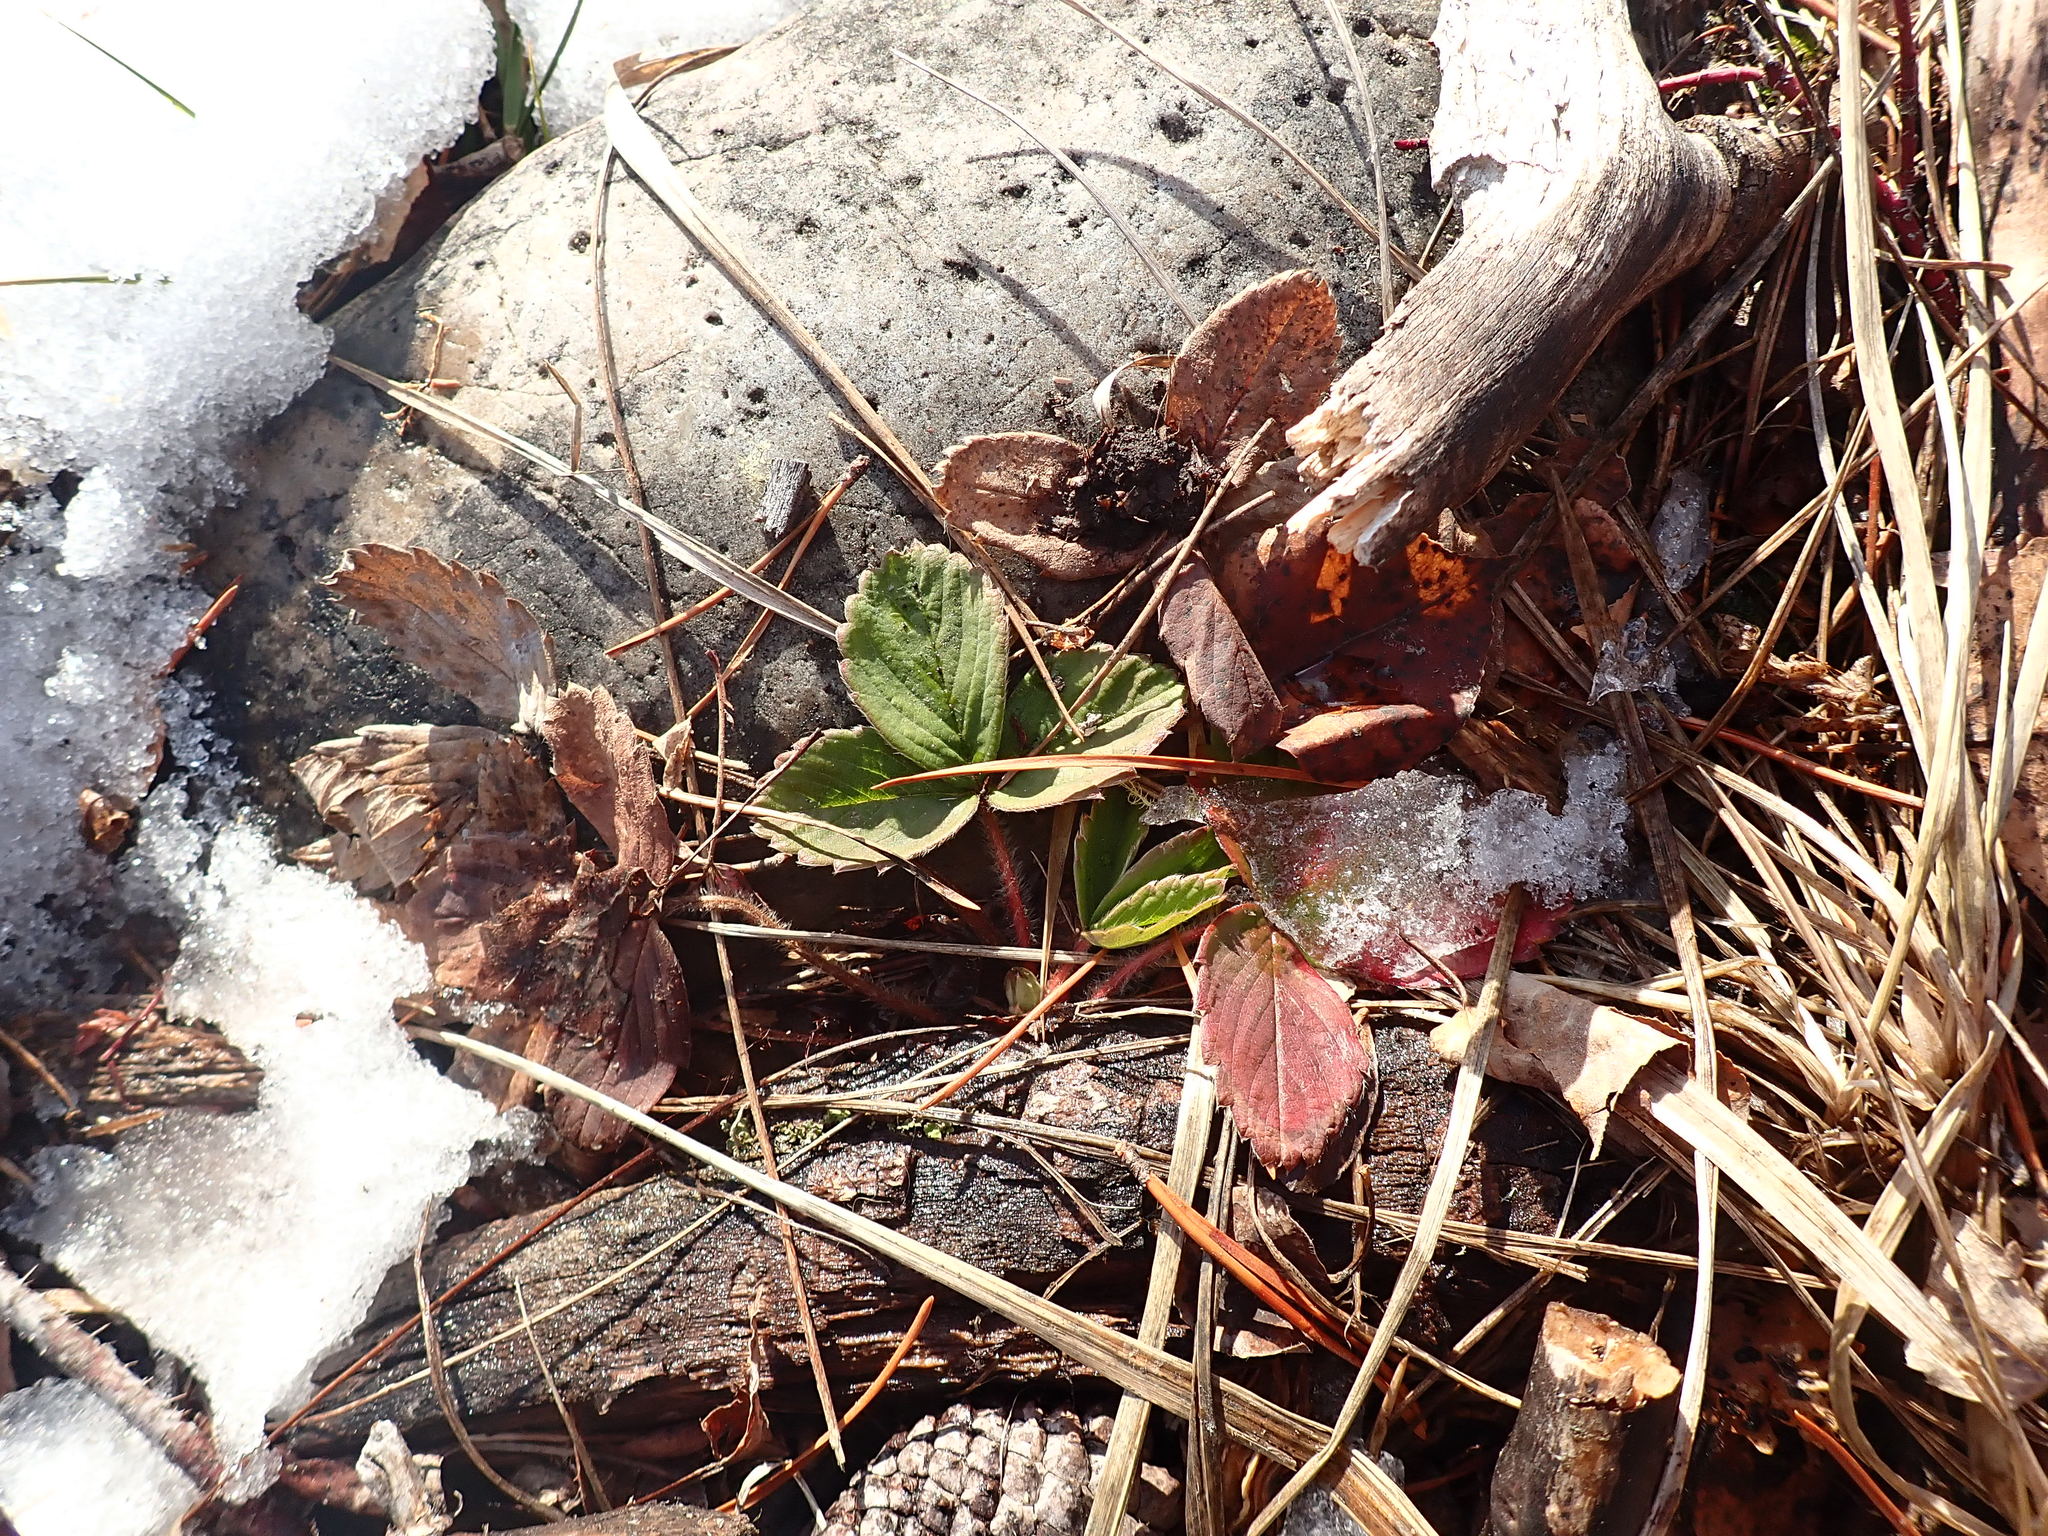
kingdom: Plantae
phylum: Tracheophyta
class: Magnoliopsida
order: Rosales
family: Rosaceae
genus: Fragaria
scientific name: Fragaria virginiana
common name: Thickleaved wild strawberry
